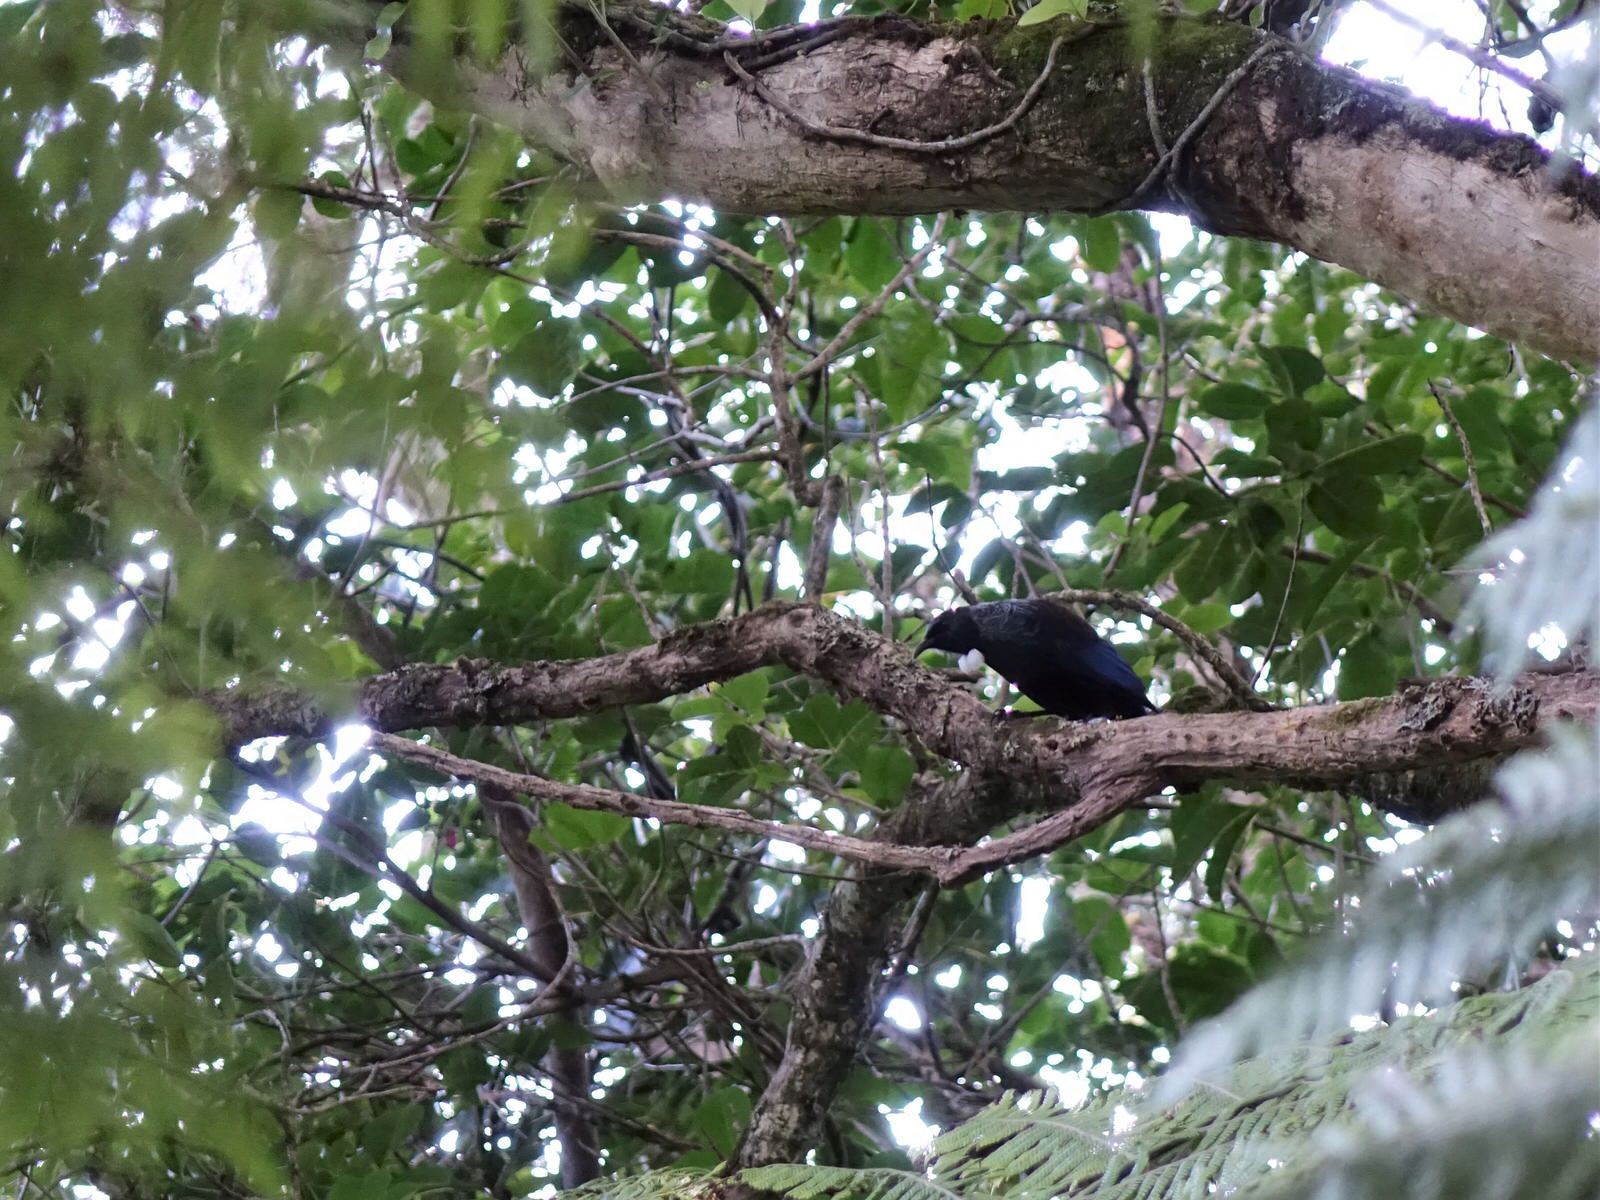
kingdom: Animalia
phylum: Chordata
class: Aves
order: Passeriformes
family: Meliphagidae
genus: Prosthemadera
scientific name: Prosthemadera novaeseelandiae
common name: Tui
